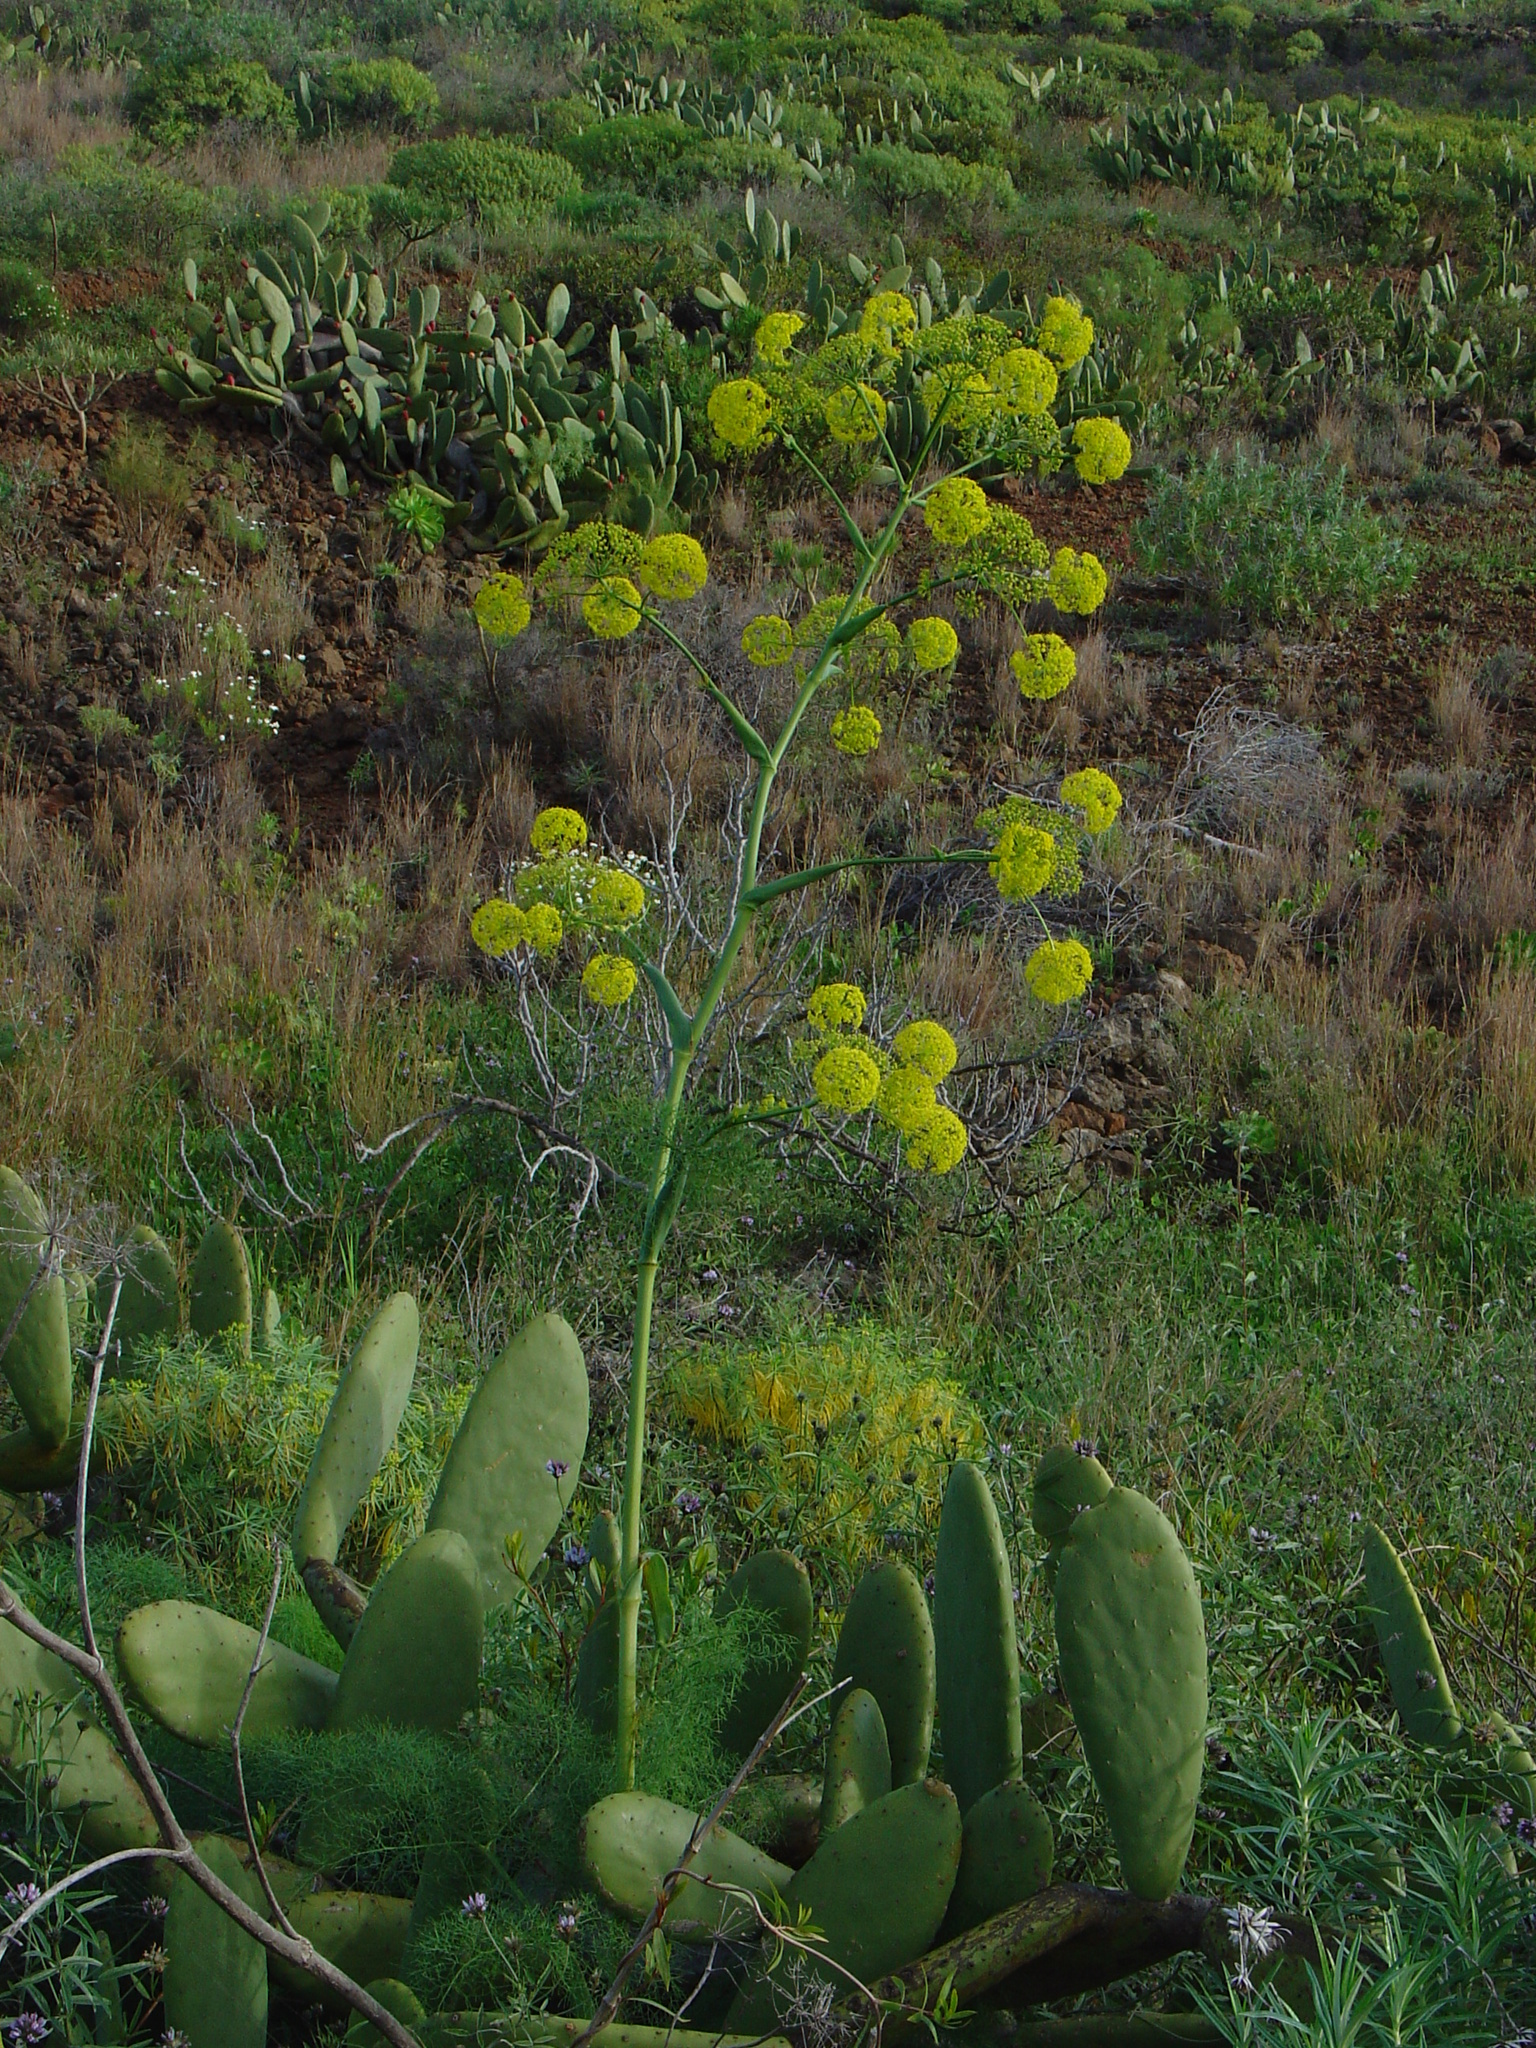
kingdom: Plantae
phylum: Tracheophyta
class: Magnoliopsida
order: Apiales
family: Apiaceae
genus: Ferula
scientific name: Ferula communis
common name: Giant fennel
